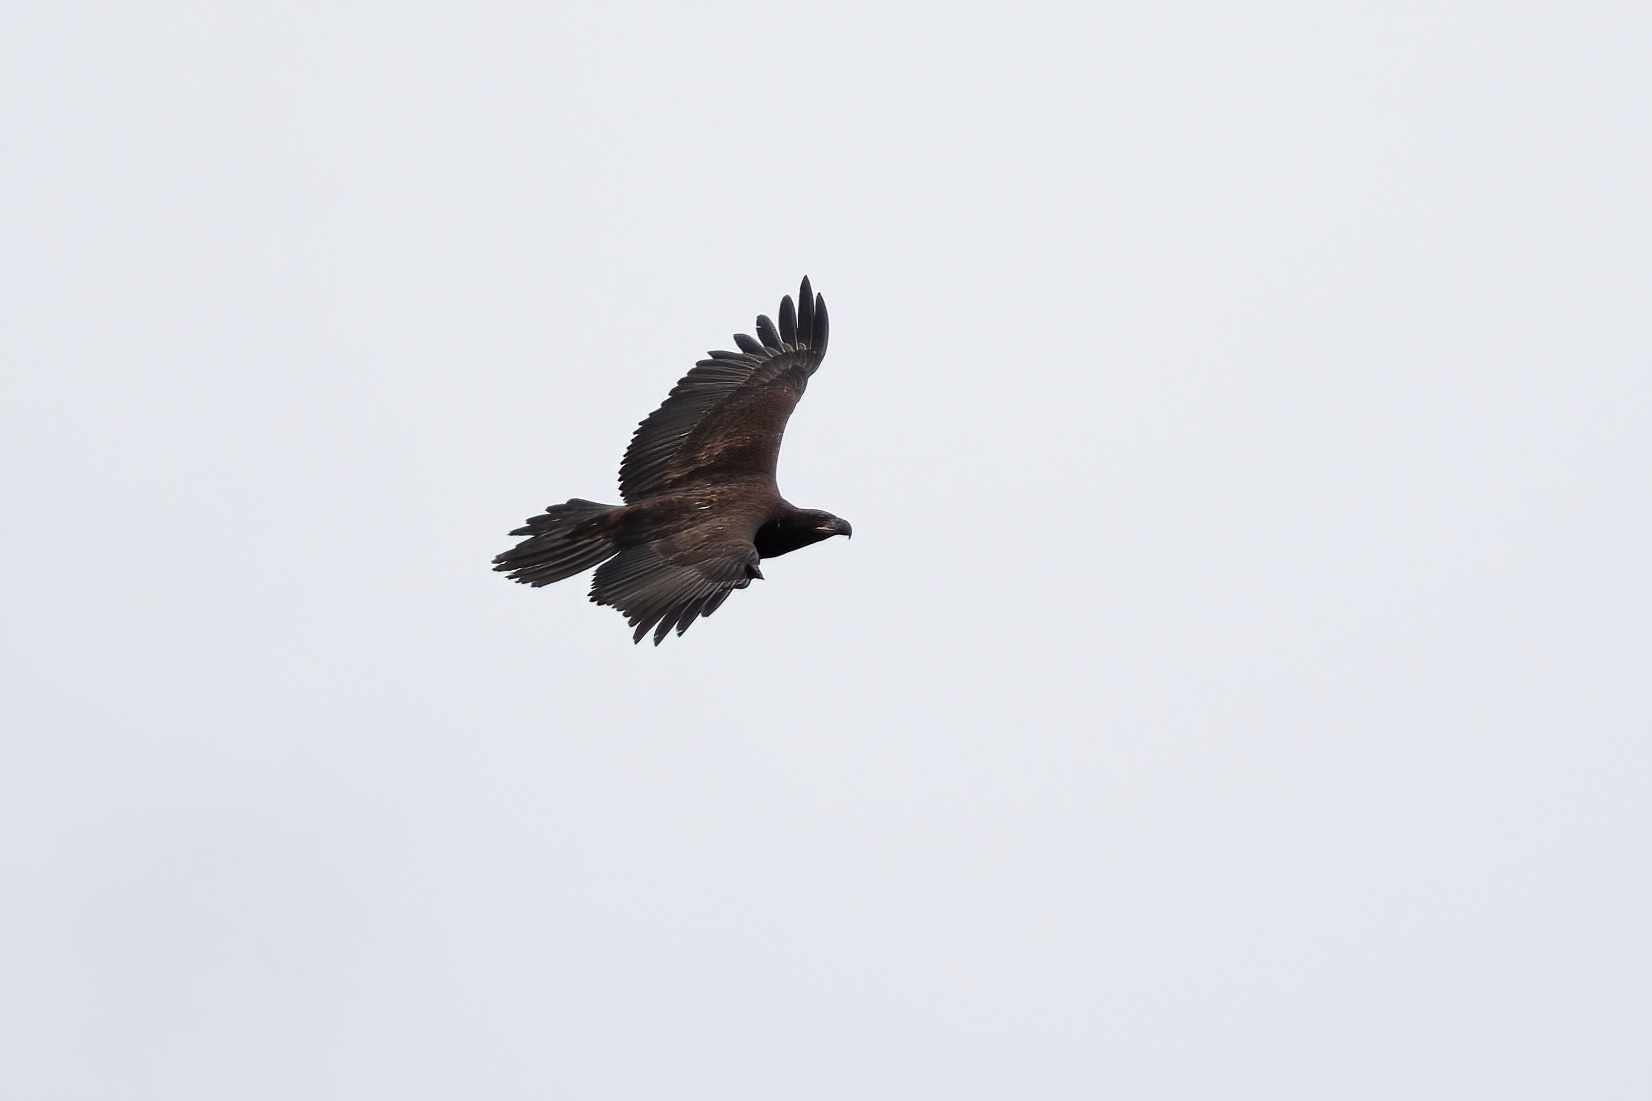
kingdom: Animalia
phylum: Chordata
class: Aves
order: Accipitriformes
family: Accipitridae
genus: Haliaeetus
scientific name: Haliaeetus leucocephalus
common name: Bald eagle
